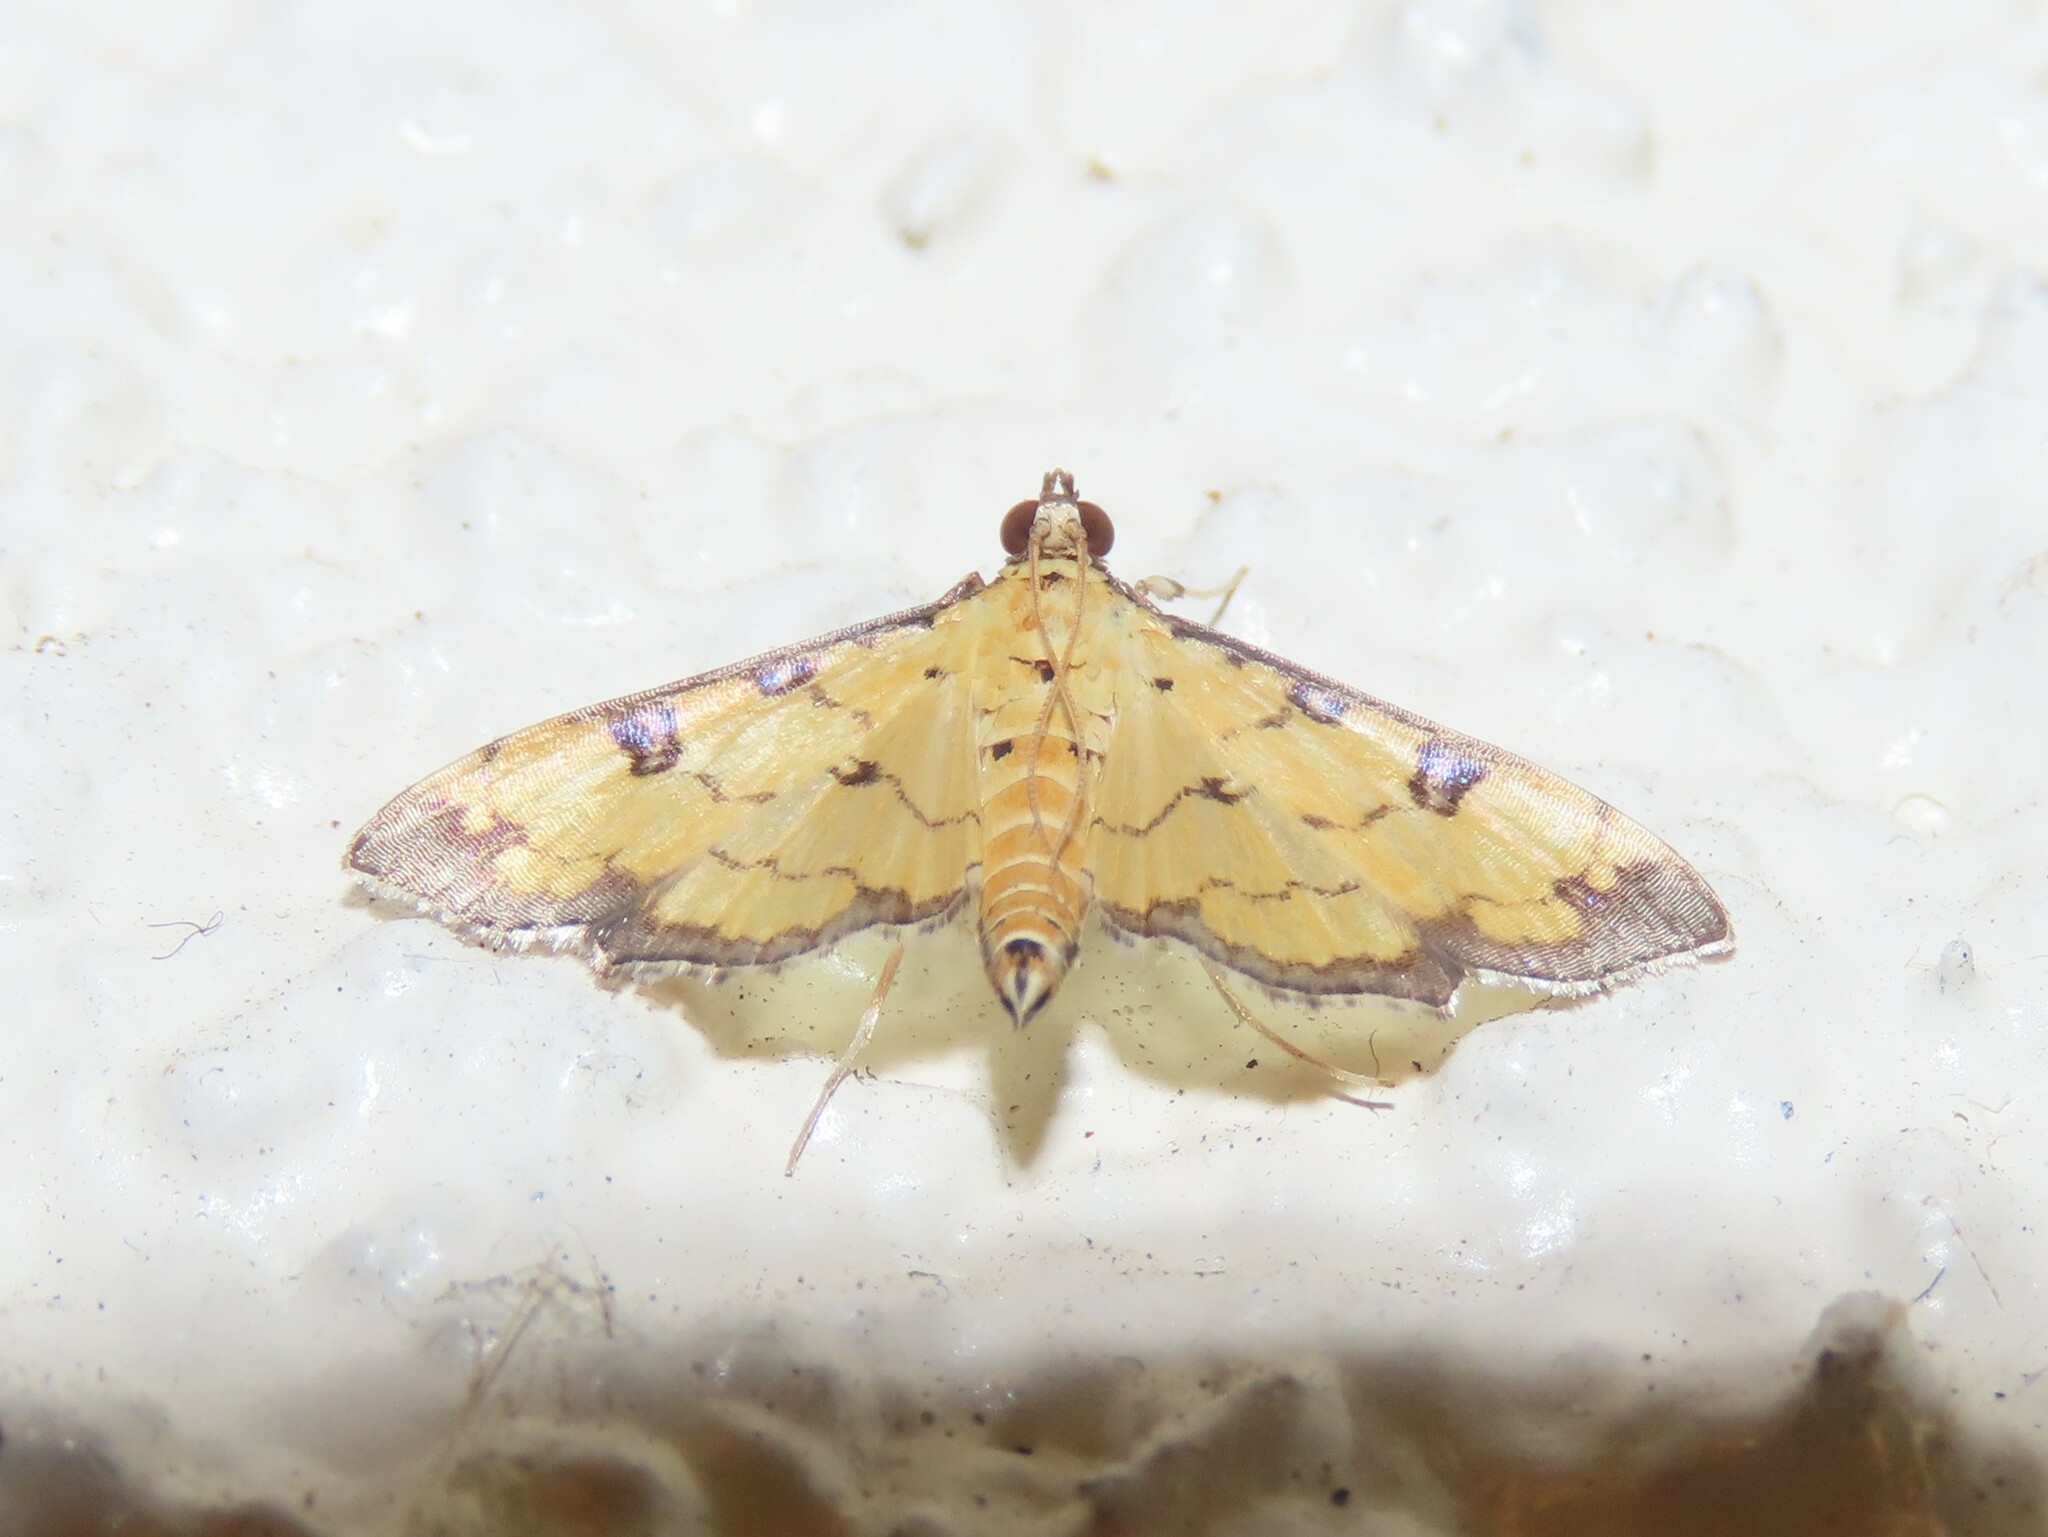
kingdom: Animalia
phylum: Arthropoda
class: Insecta
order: Lepidoptera
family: Crambidae
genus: Ategumia
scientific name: Ategumia ebulealis
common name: Moth
